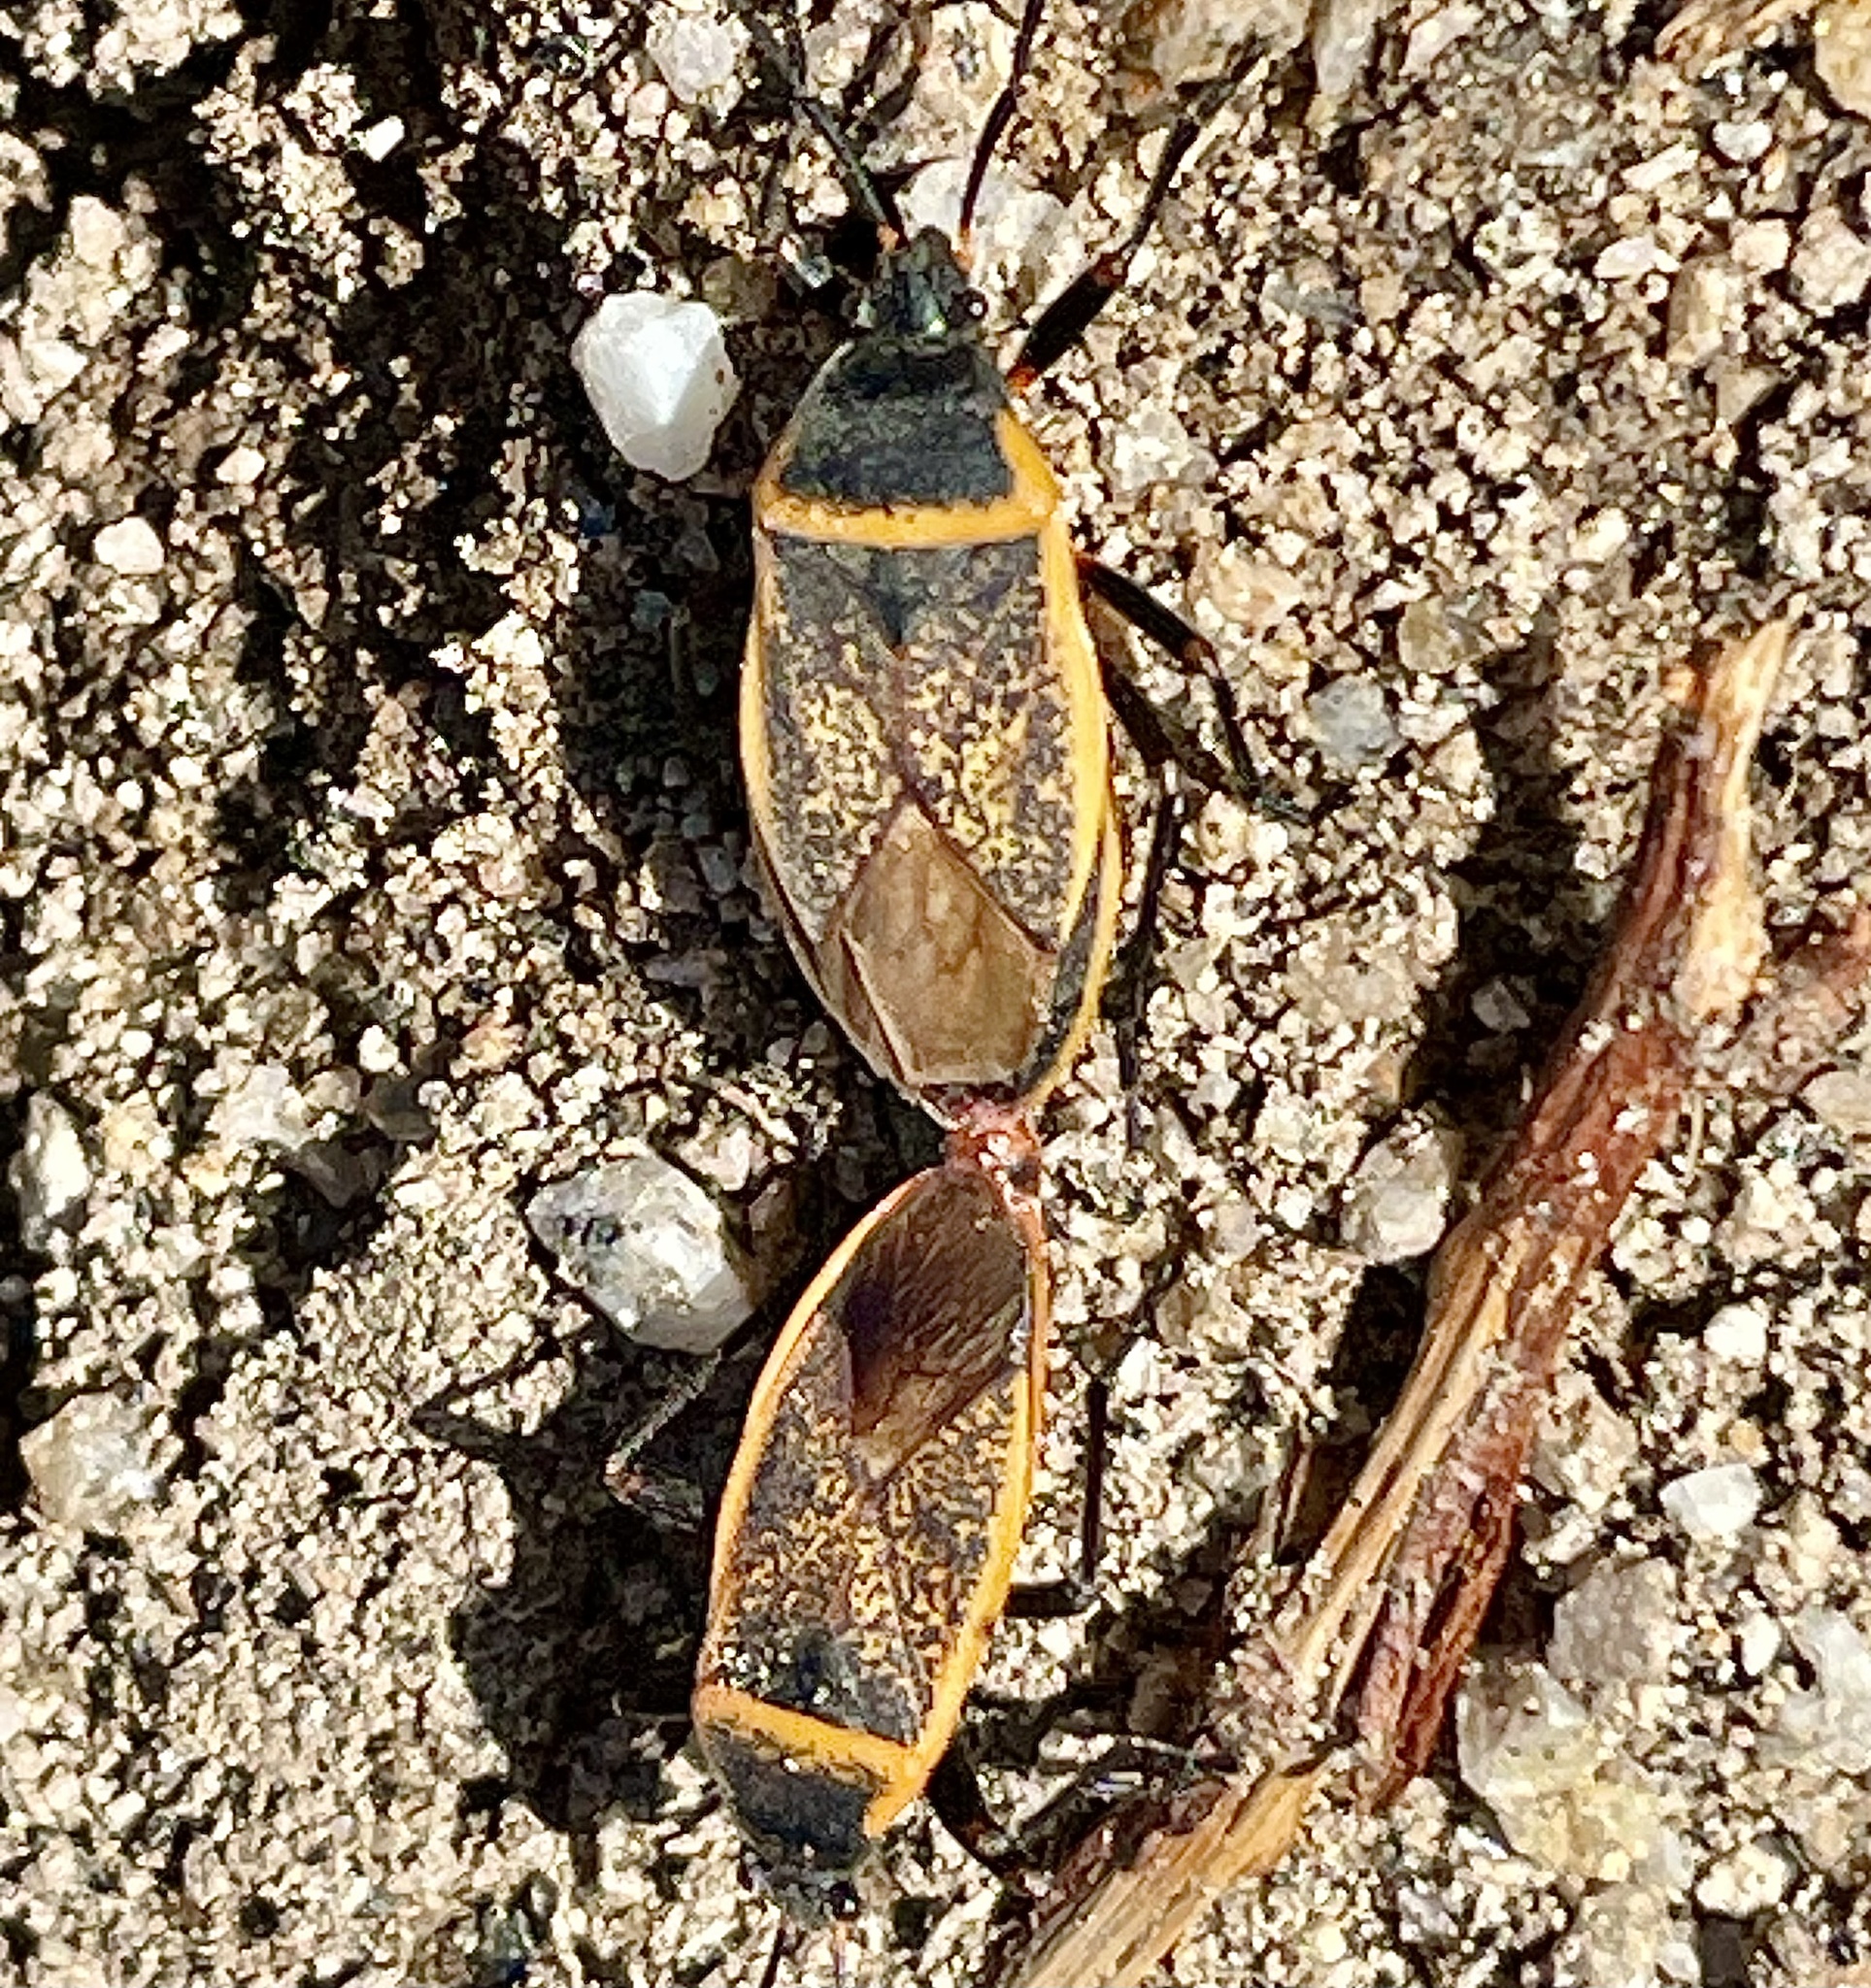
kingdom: Animalia
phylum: Arthropoda
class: Insecta
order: Hemiptera
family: Largidae
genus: Largus
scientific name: Largus californicus
